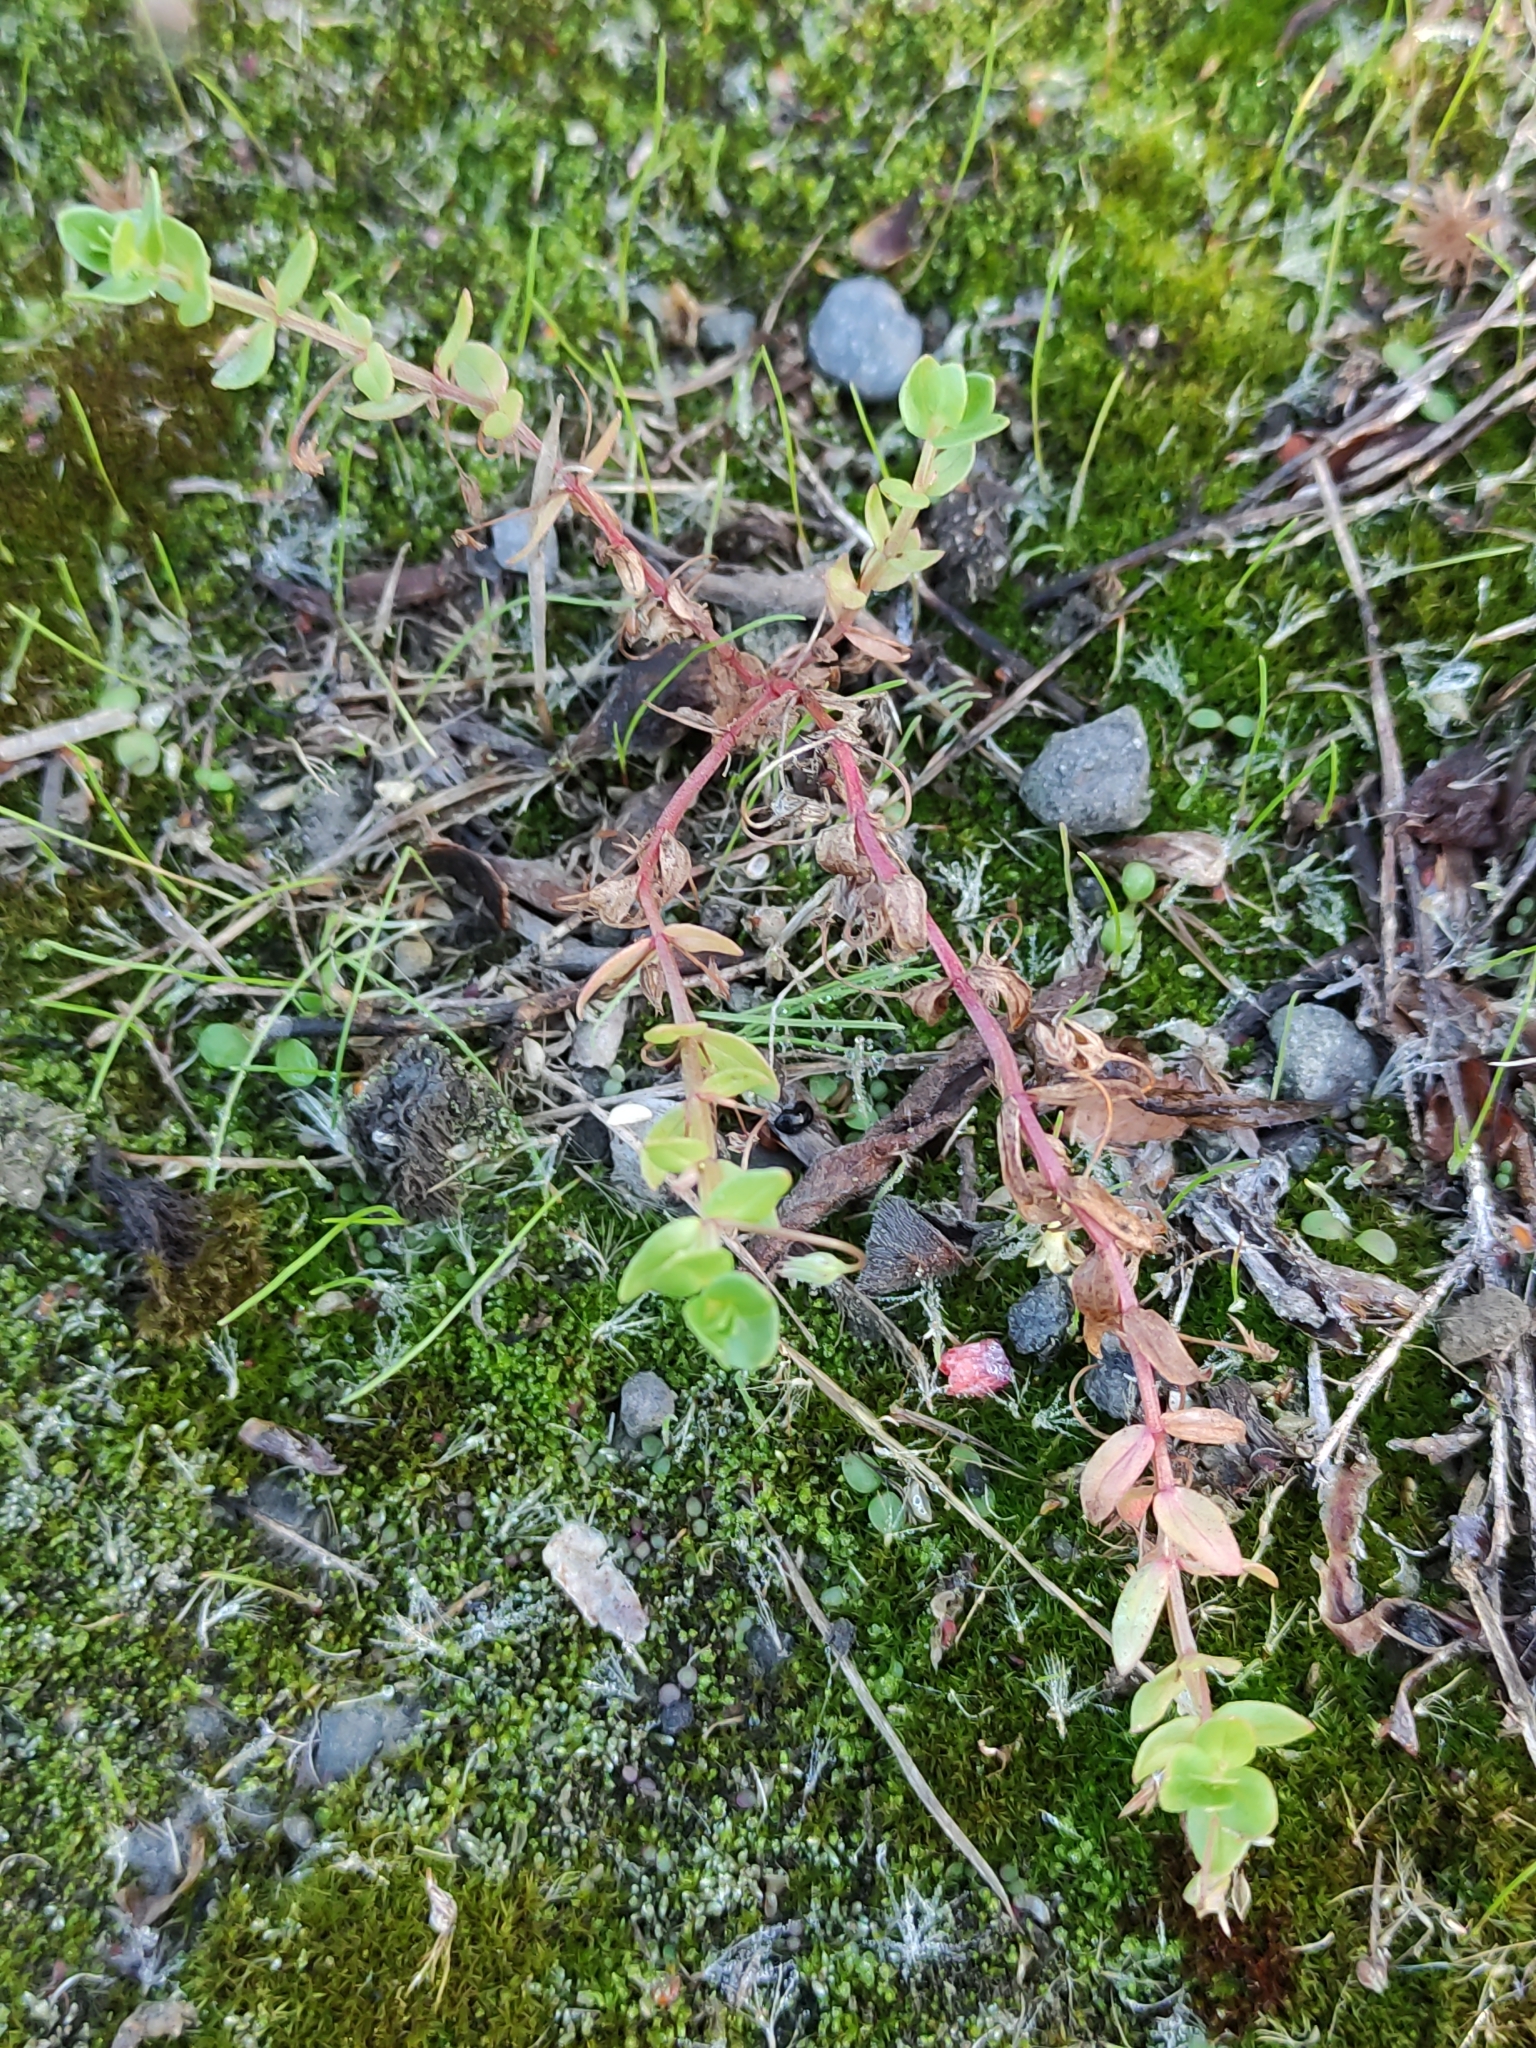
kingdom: Plantae
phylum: Tracheophyta
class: Magnoliopsida
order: Ericales
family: Primulaceae
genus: Lysimachia
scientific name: Lysimachia arvensis
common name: Scarlet pimpernel
